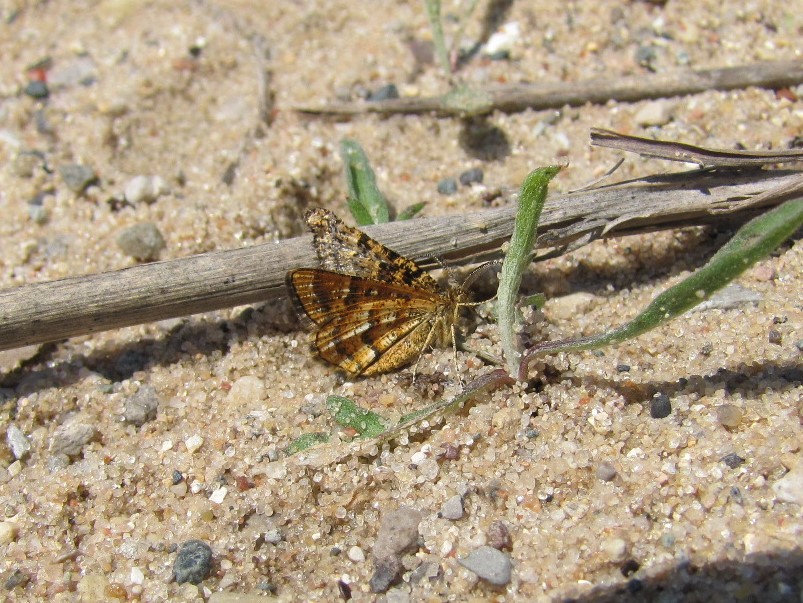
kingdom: Animalia
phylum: Arthropoda
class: Insecta
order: Lepidoptera
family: Geometridae
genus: Macaria
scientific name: Macaria truncataria
